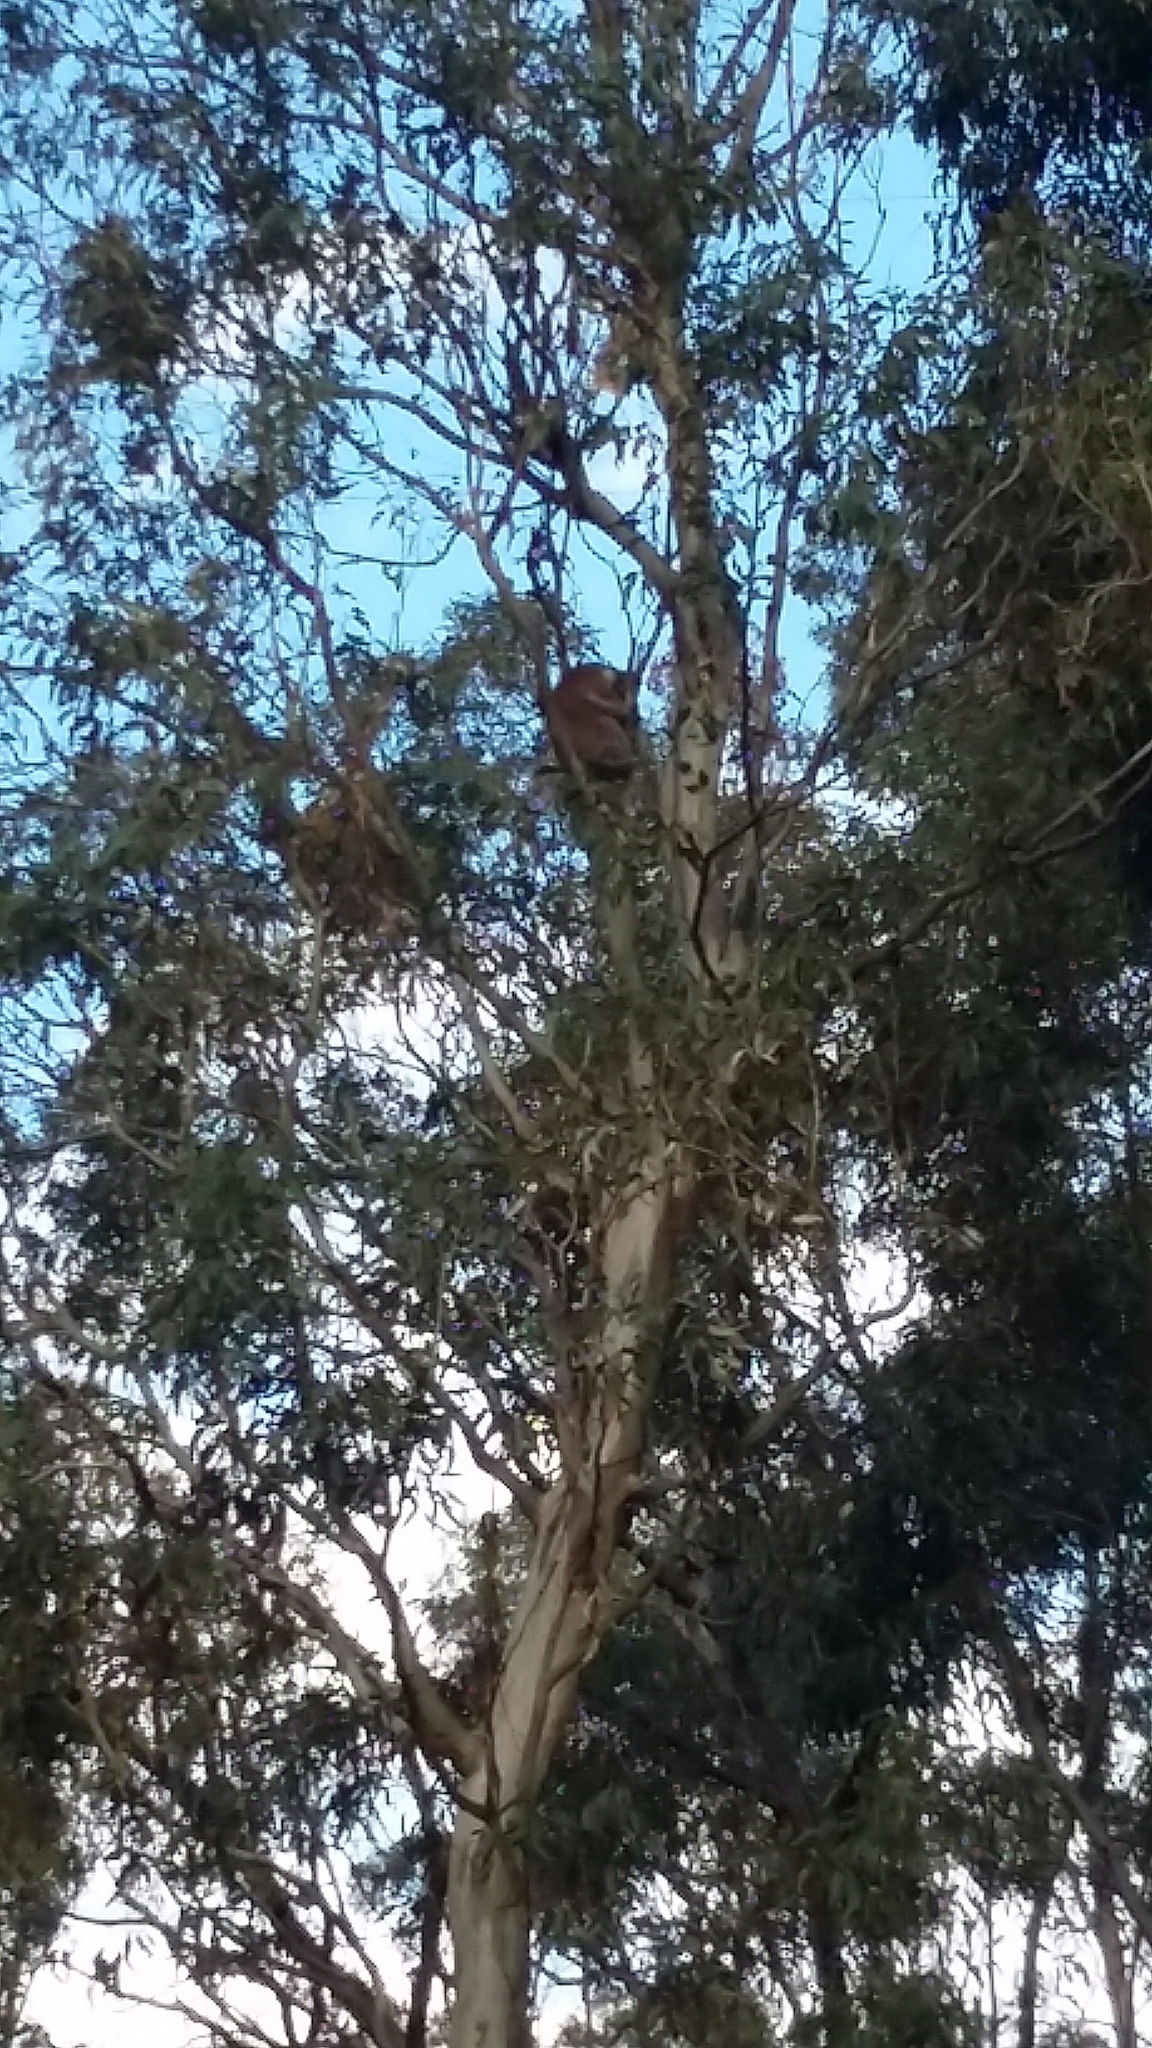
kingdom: Animalia
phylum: Chordata
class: Mammalia
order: Diprotodontia
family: Phascolarctidae
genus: Phascolarctos
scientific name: Phascolarctos cinereus
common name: Koala
